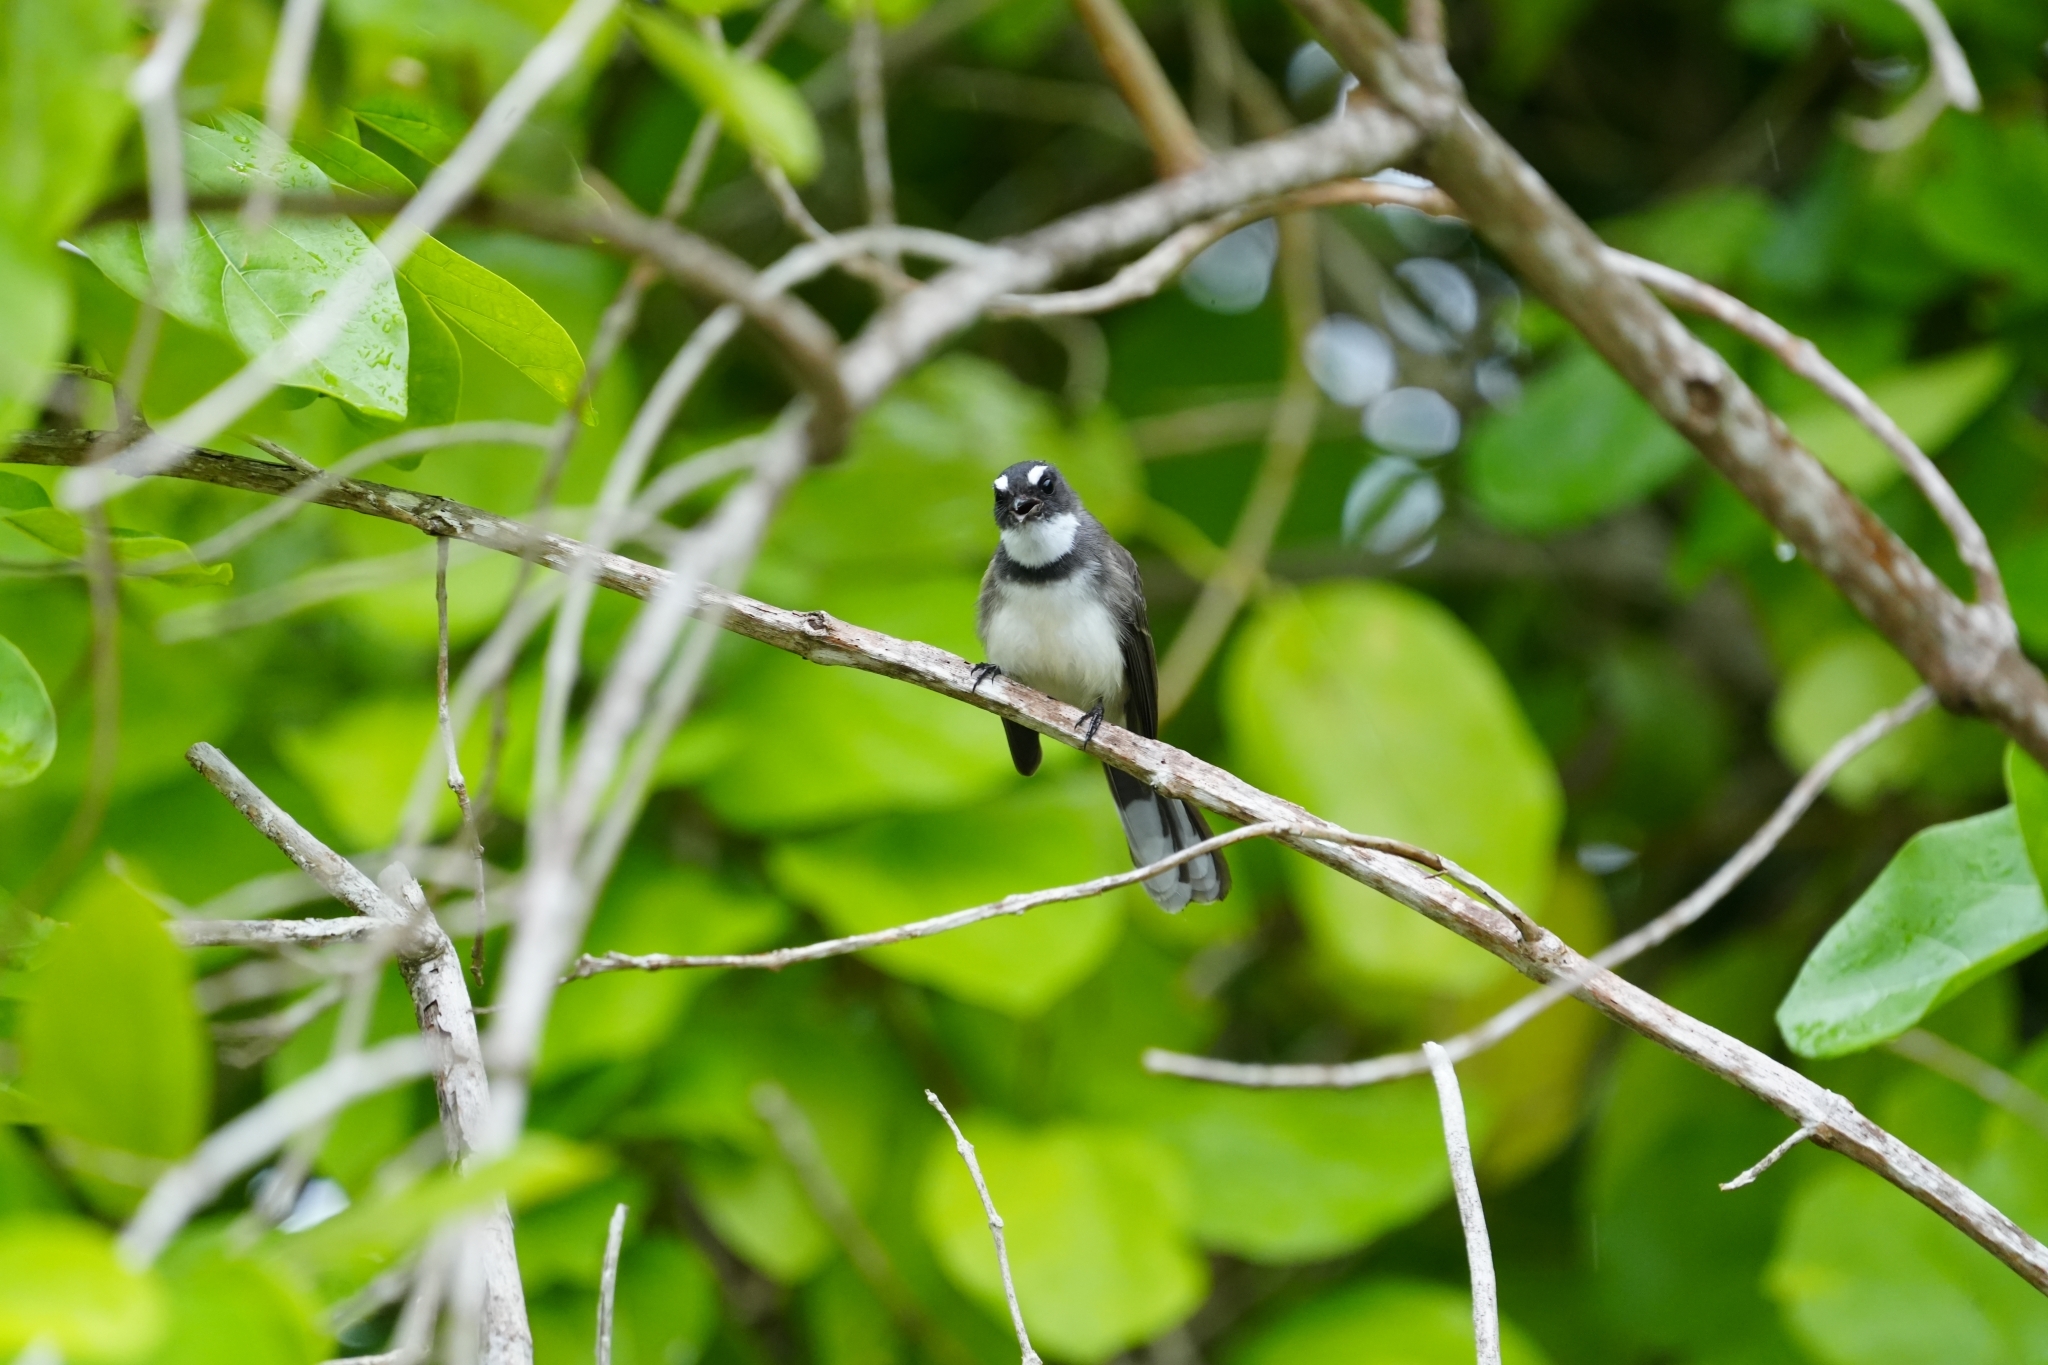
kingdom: Animalia
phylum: Chordata
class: Aves
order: Passeriformes
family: Rhipiduridae
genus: Rhipidura
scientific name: Rhipidura javanica
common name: Pied fantail
